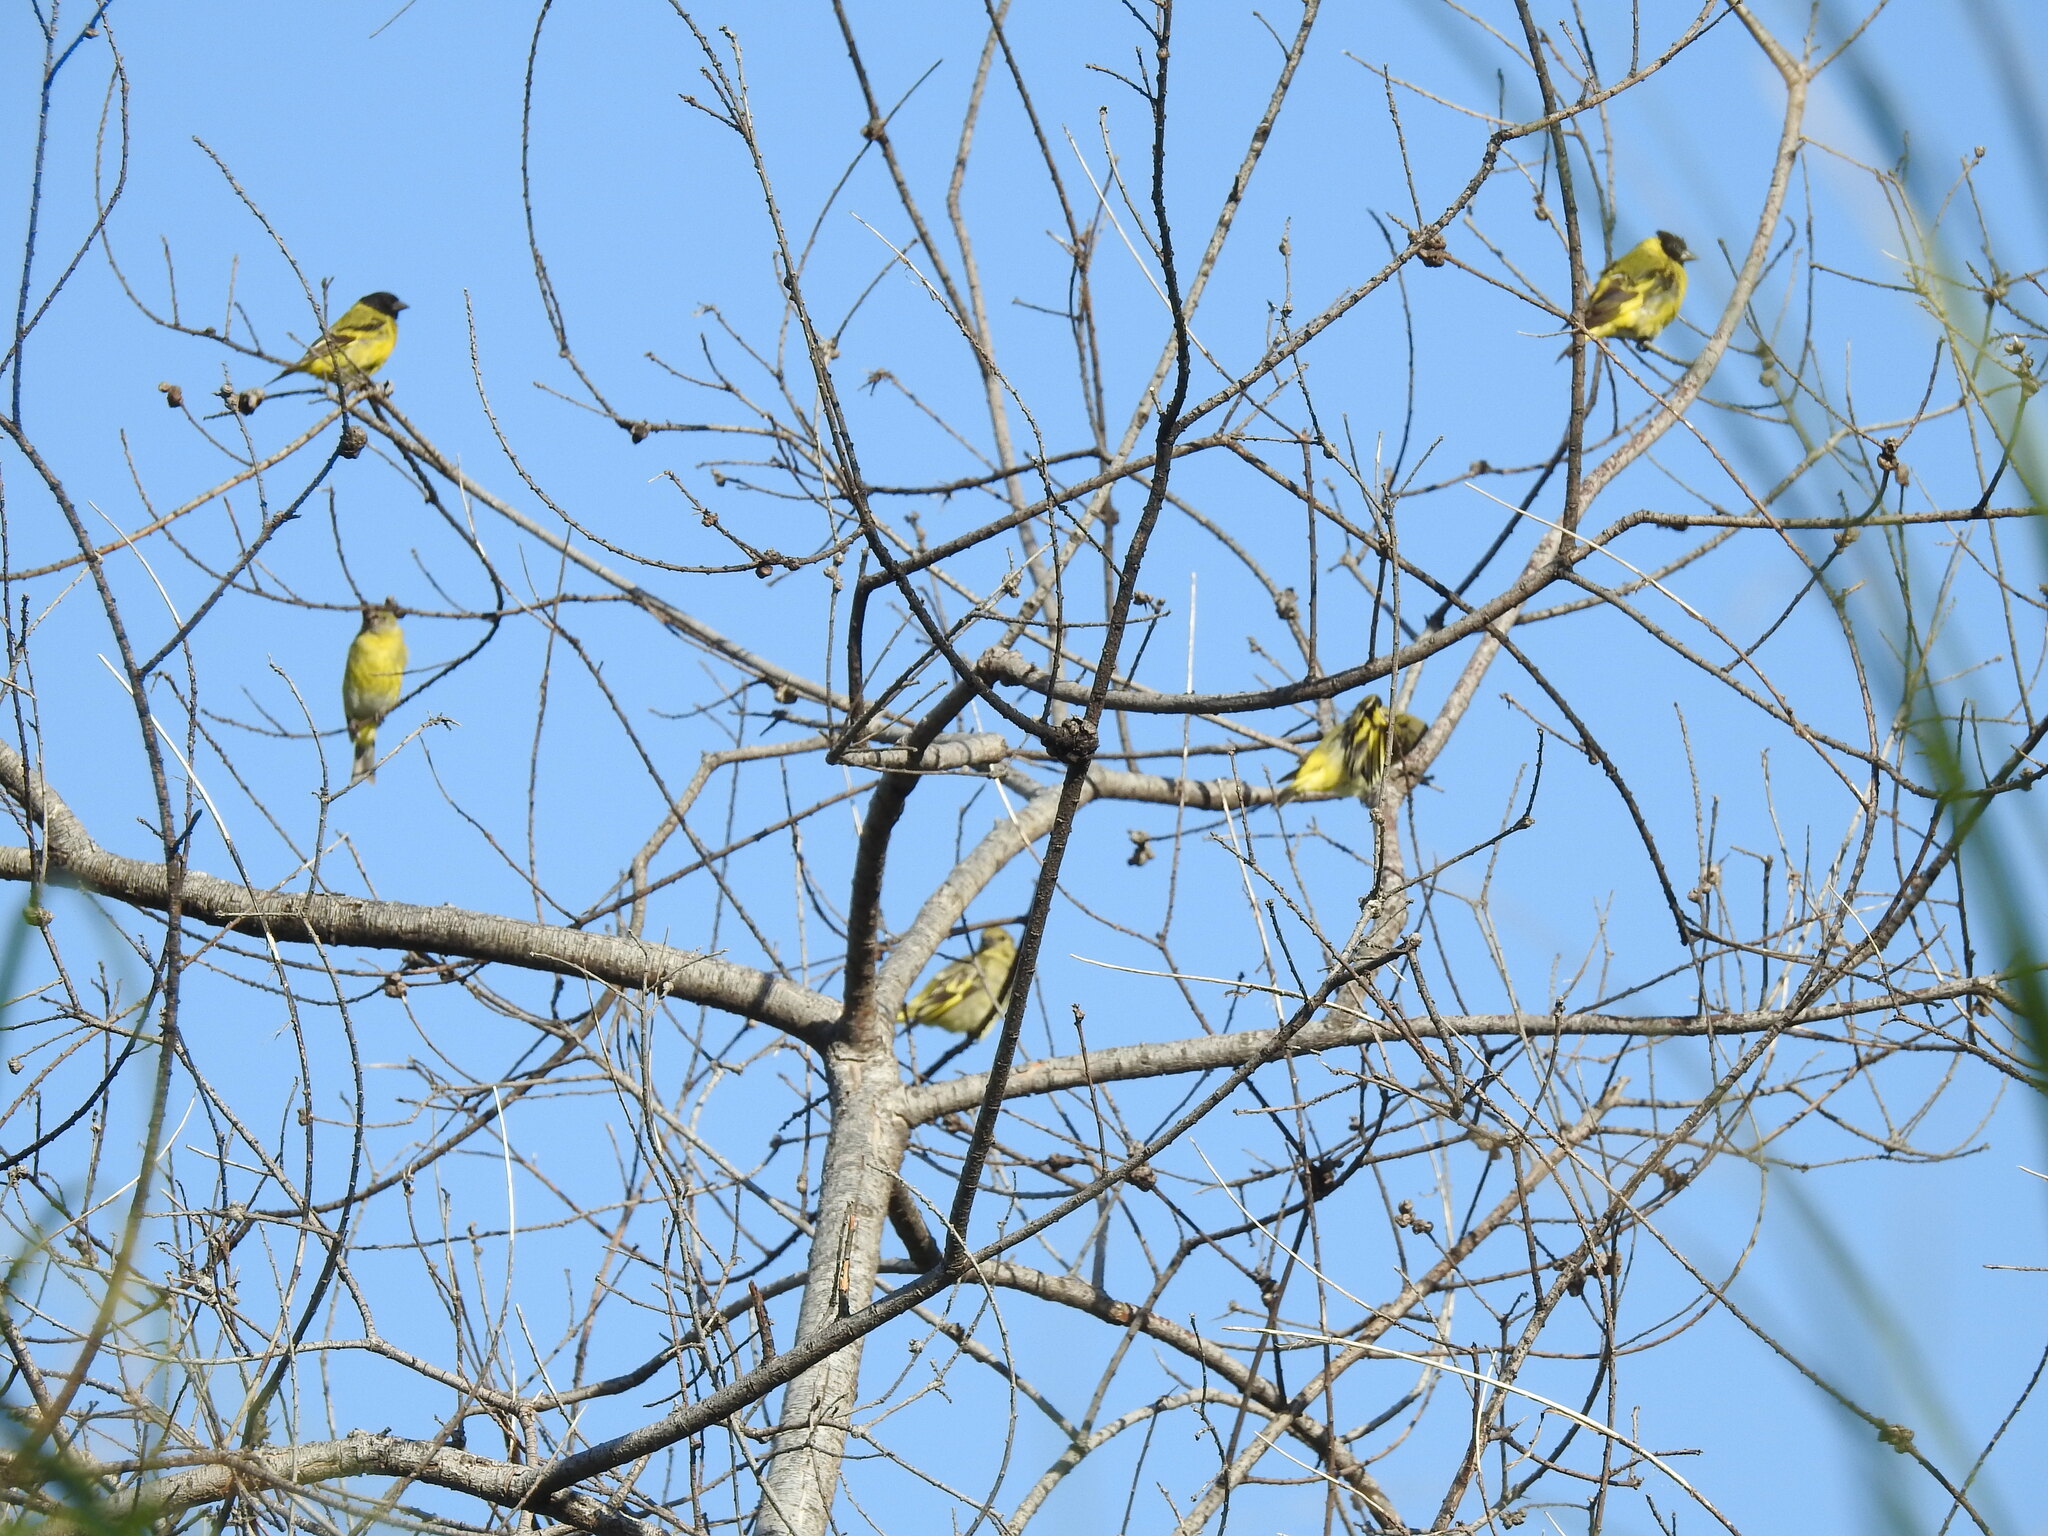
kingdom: Animalia
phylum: Chordata
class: Aves
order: Passeriformes
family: Fringillidae
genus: Spinus
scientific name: Spinus magellanicus
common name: Hooded siskin
